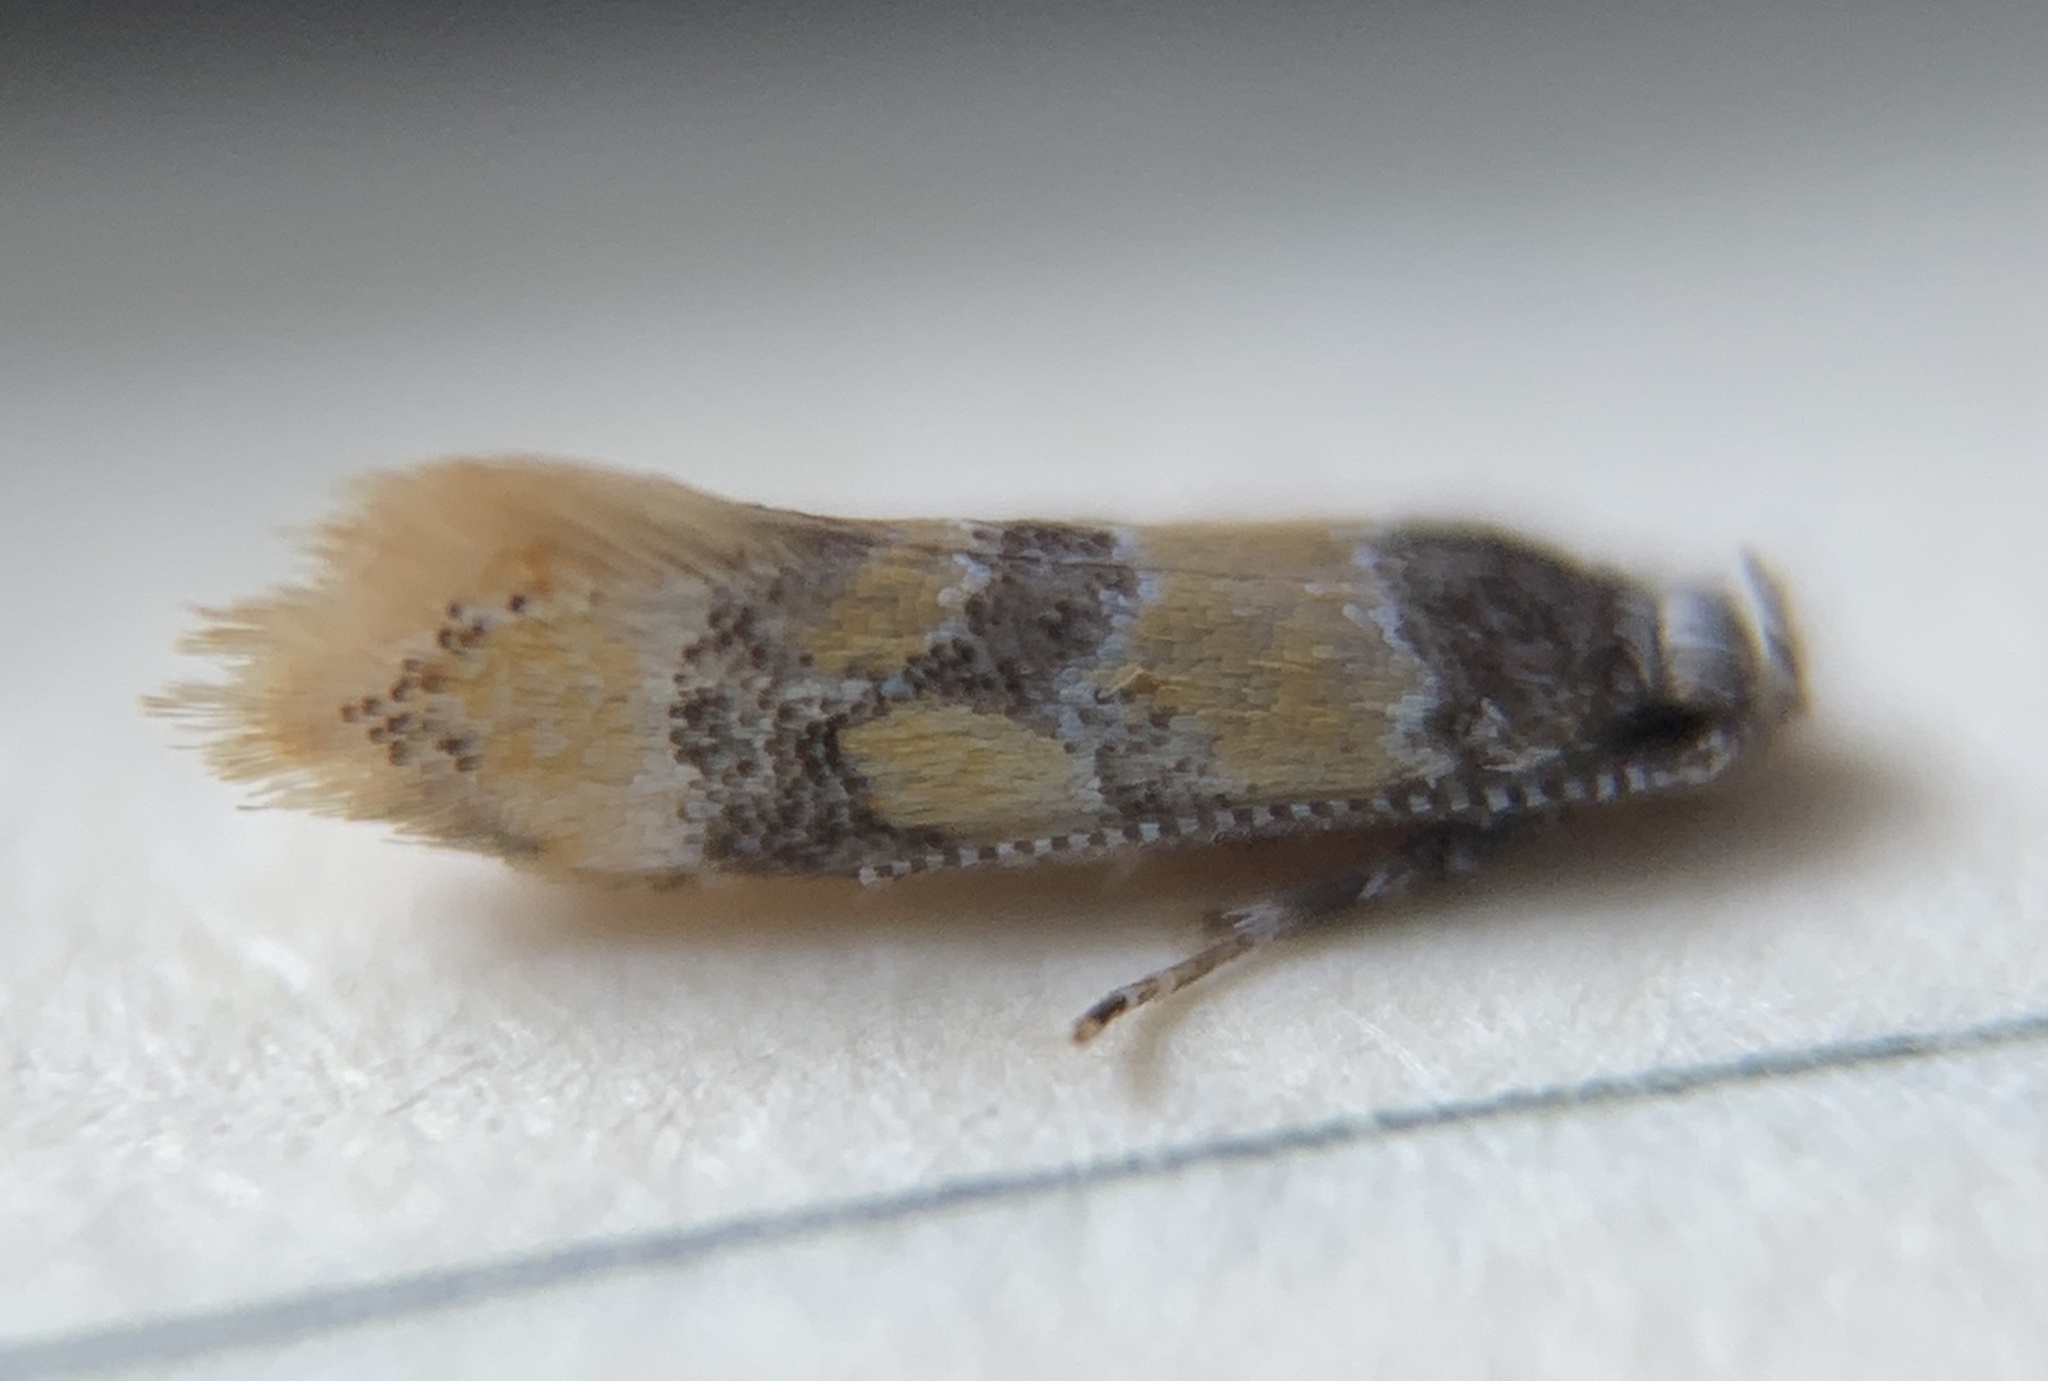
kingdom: Animalia
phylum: Arthropoda
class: Insecta
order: Lepidoptera
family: Oecophoridae
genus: Decantha
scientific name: Decantha stecia
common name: Small decantha moth
